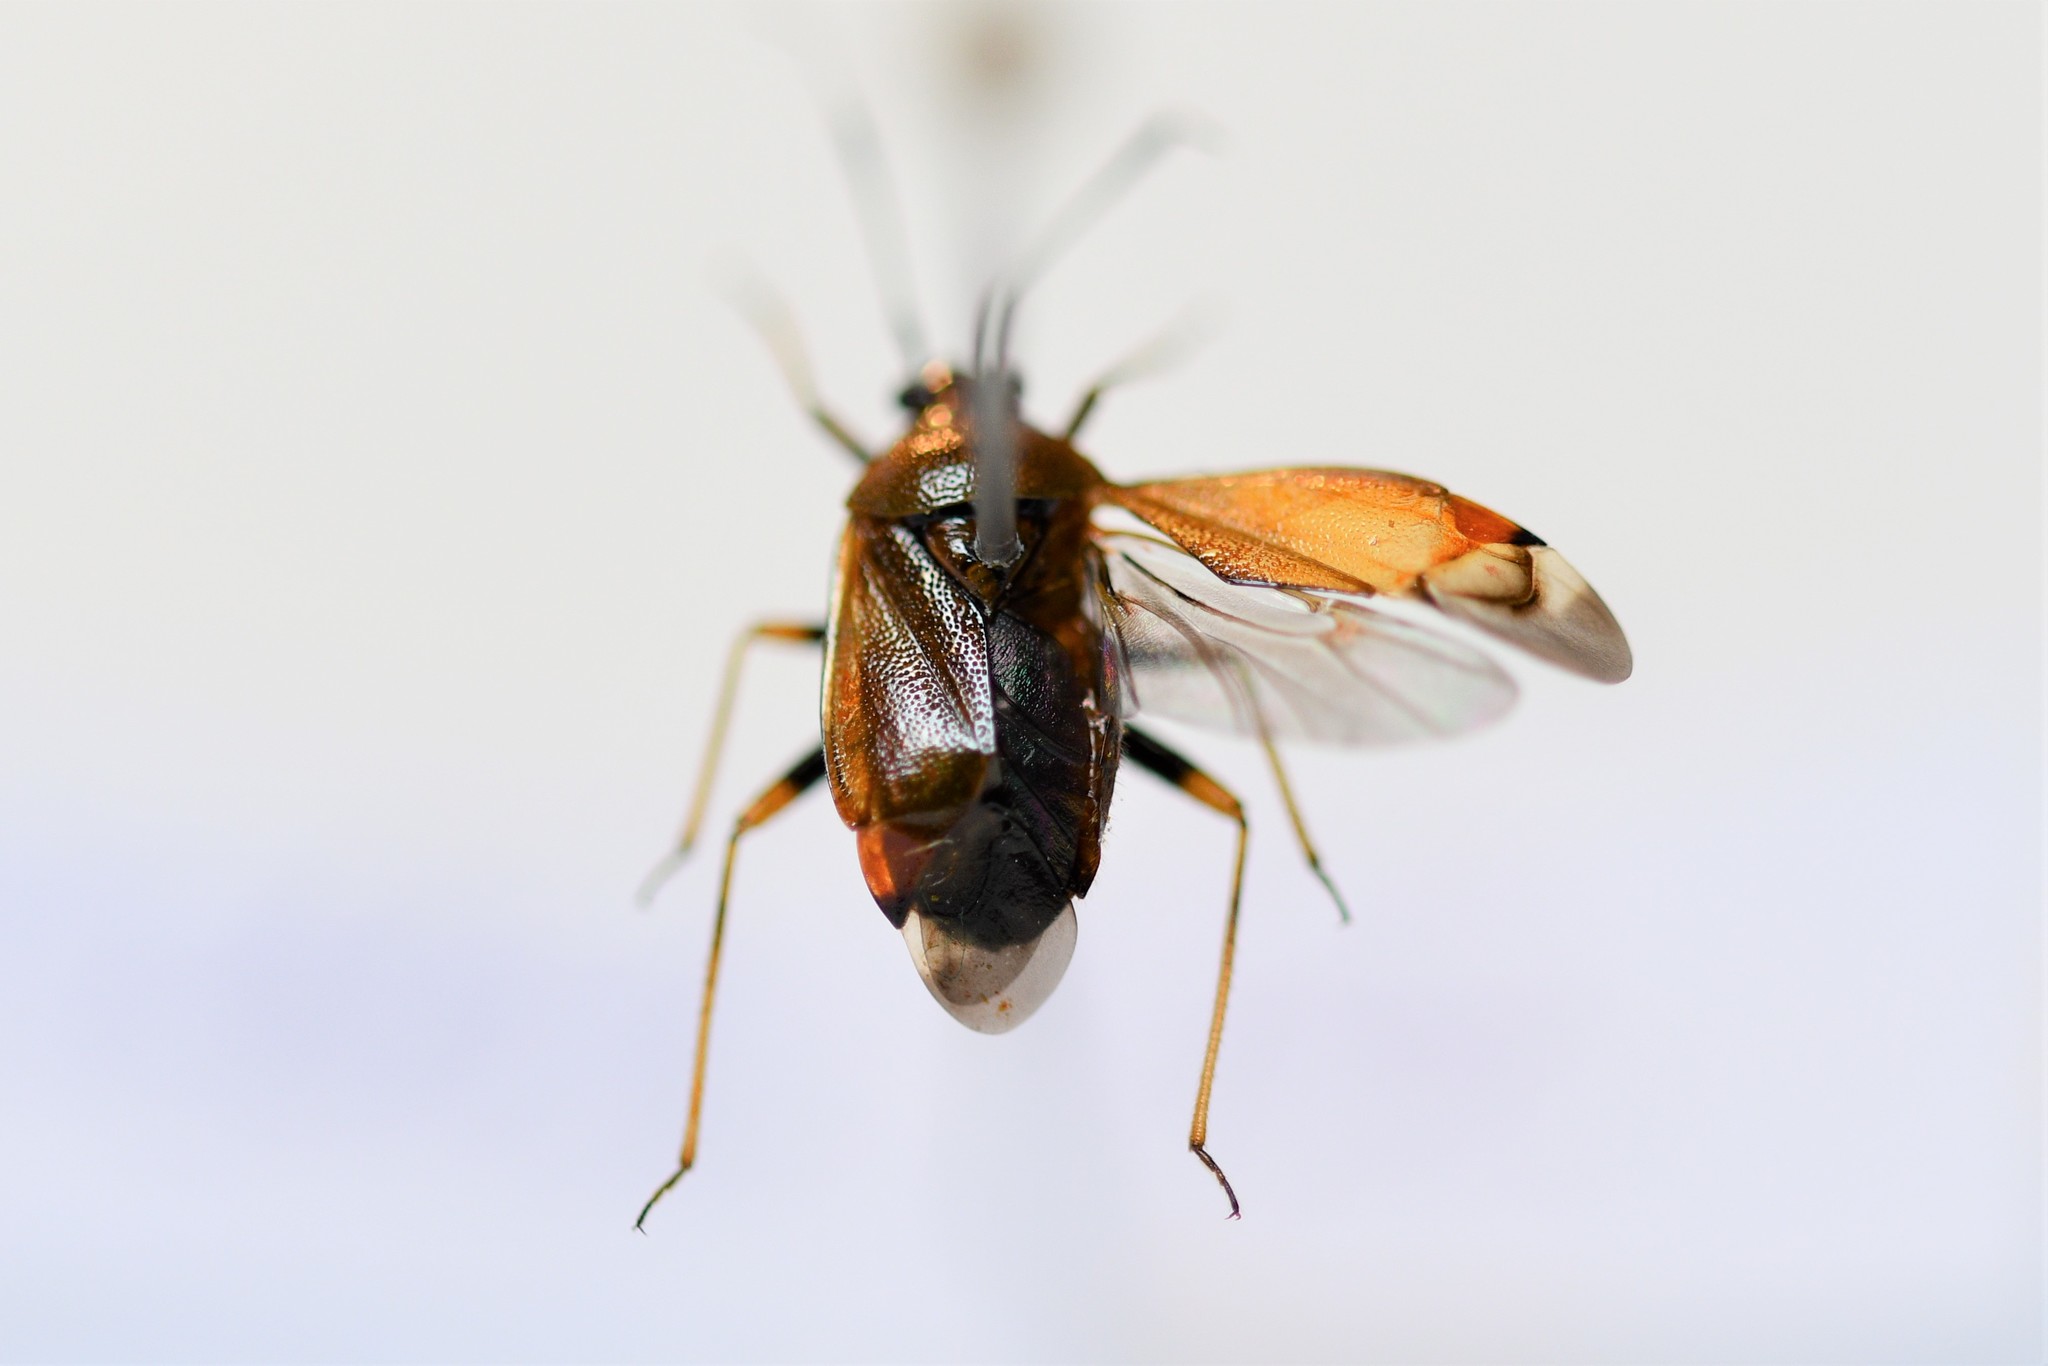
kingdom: Animalia
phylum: Arthropoda
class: Insecta
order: Hemiptera
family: Miridae
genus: Deraeocoris
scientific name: Deraeocoris ruber
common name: Plant bug
